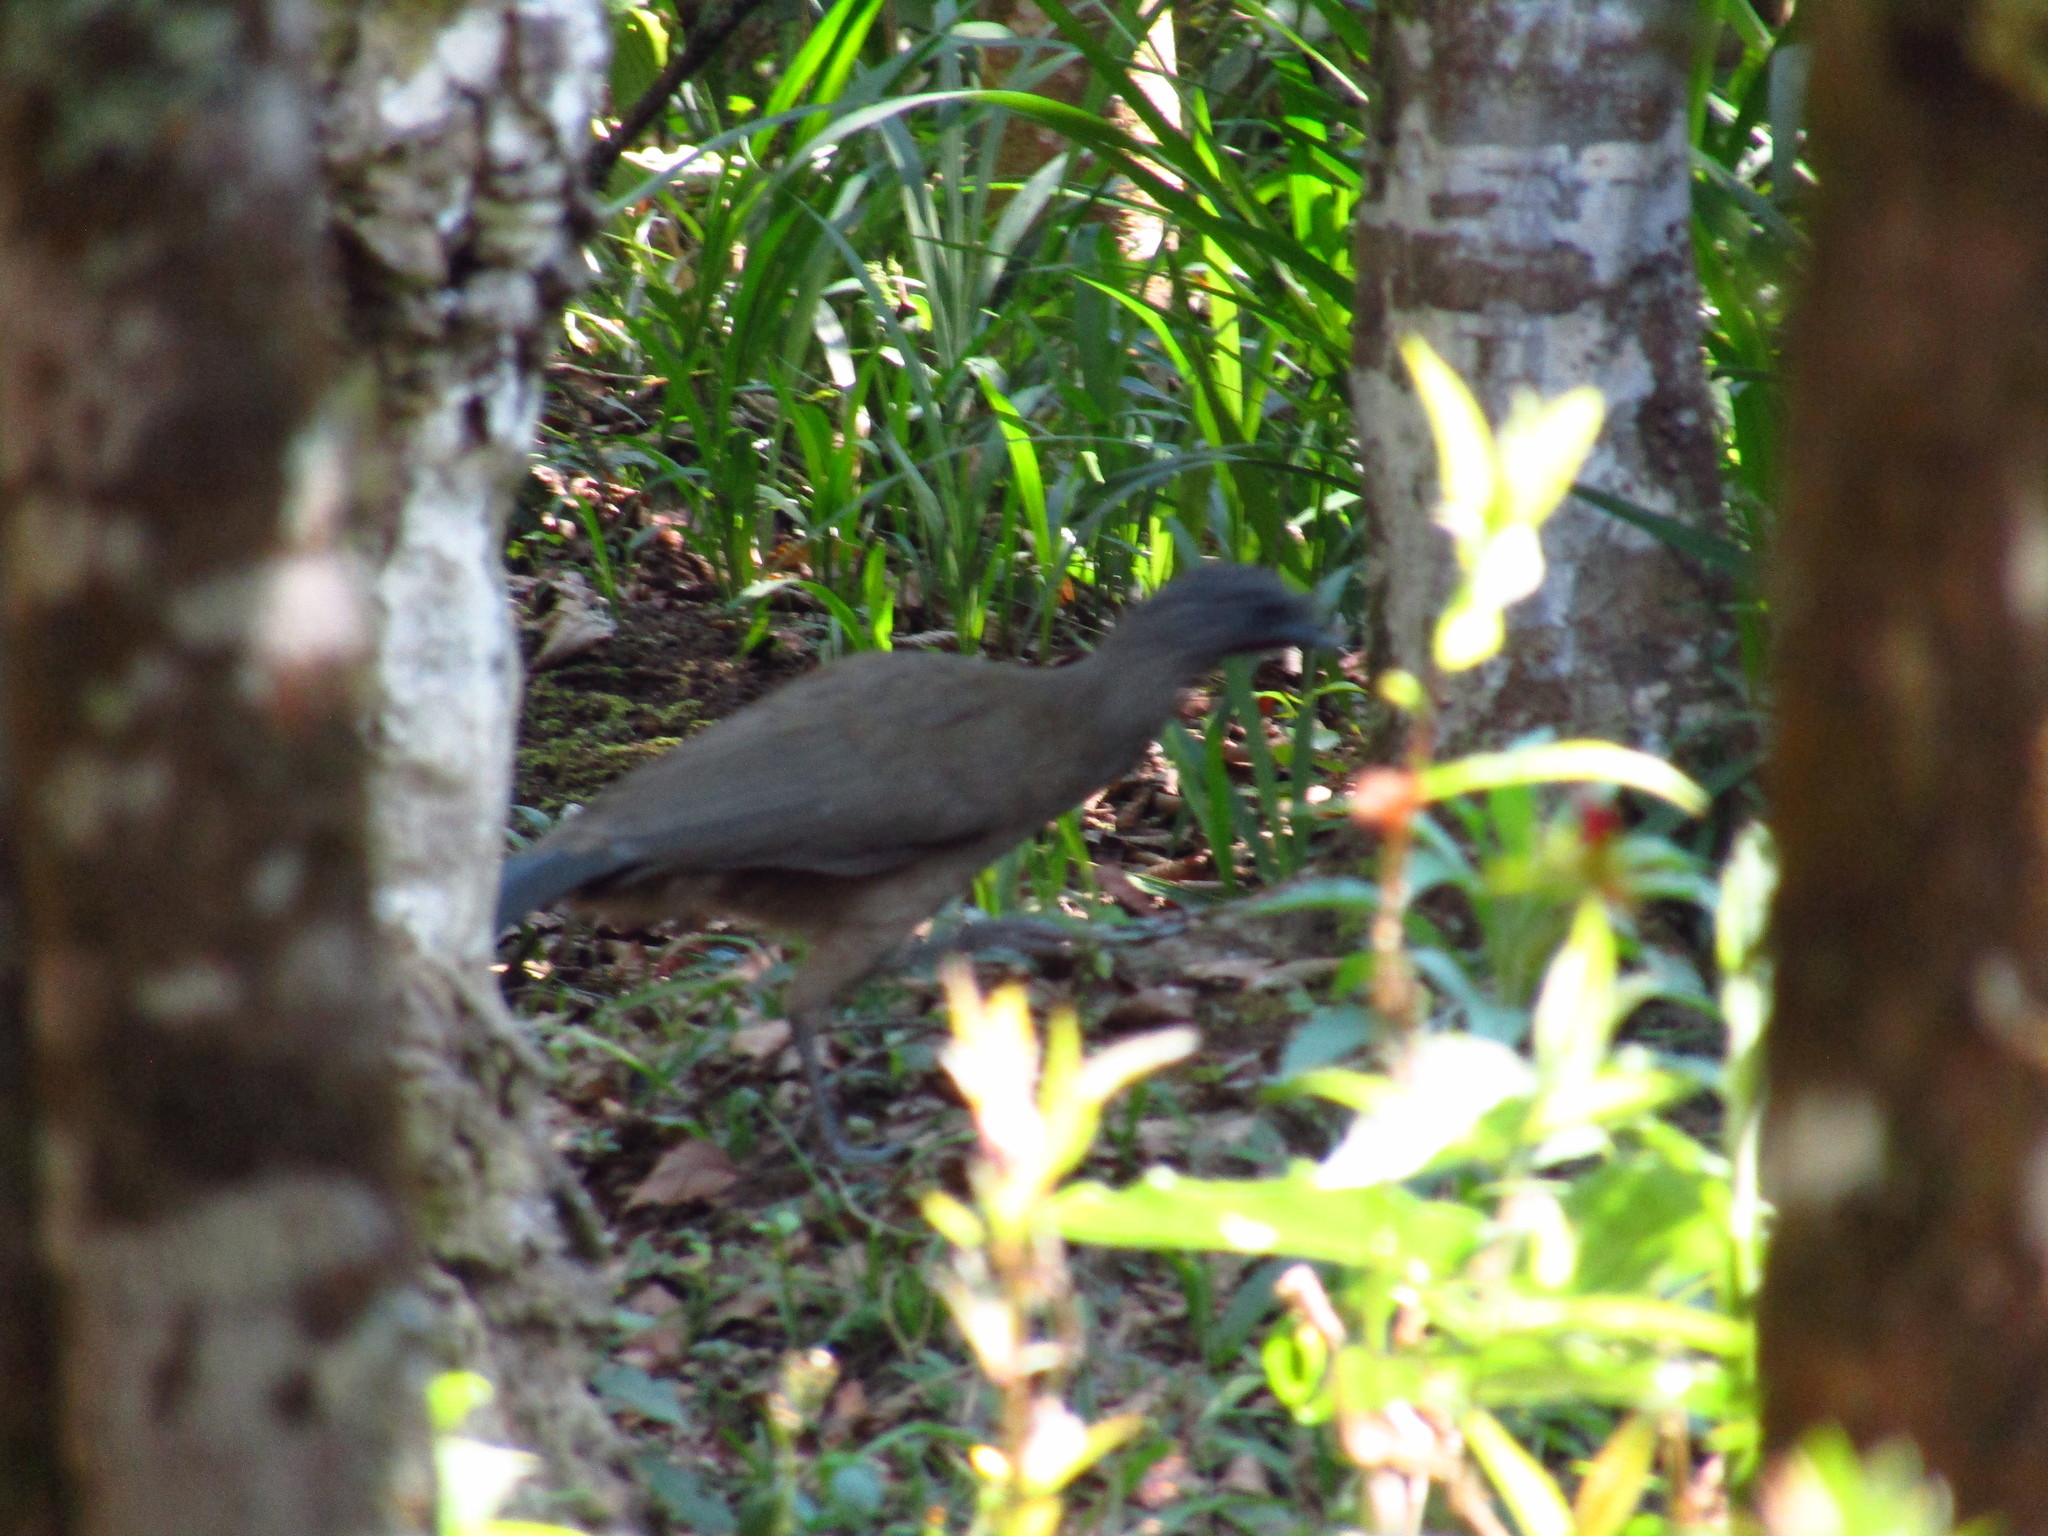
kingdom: Animalia
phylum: Chordata
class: Aves
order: Galliformes
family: Cracidae
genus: Ortalis
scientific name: Ortalis vetula
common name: Plain chachalaca
